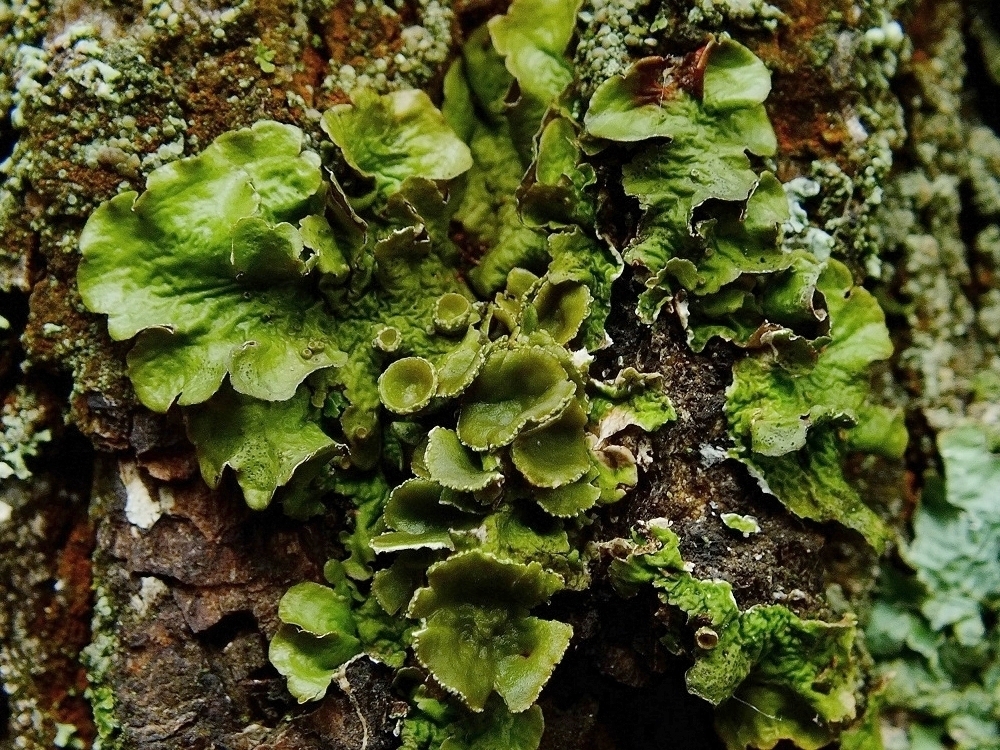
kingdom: Fungi
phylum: Ascomycota
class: Lecanoromycetes
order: Lecanorales
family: Parmeliaceae
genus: Pleurosticta
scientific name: Pleurosticta acetabulum
